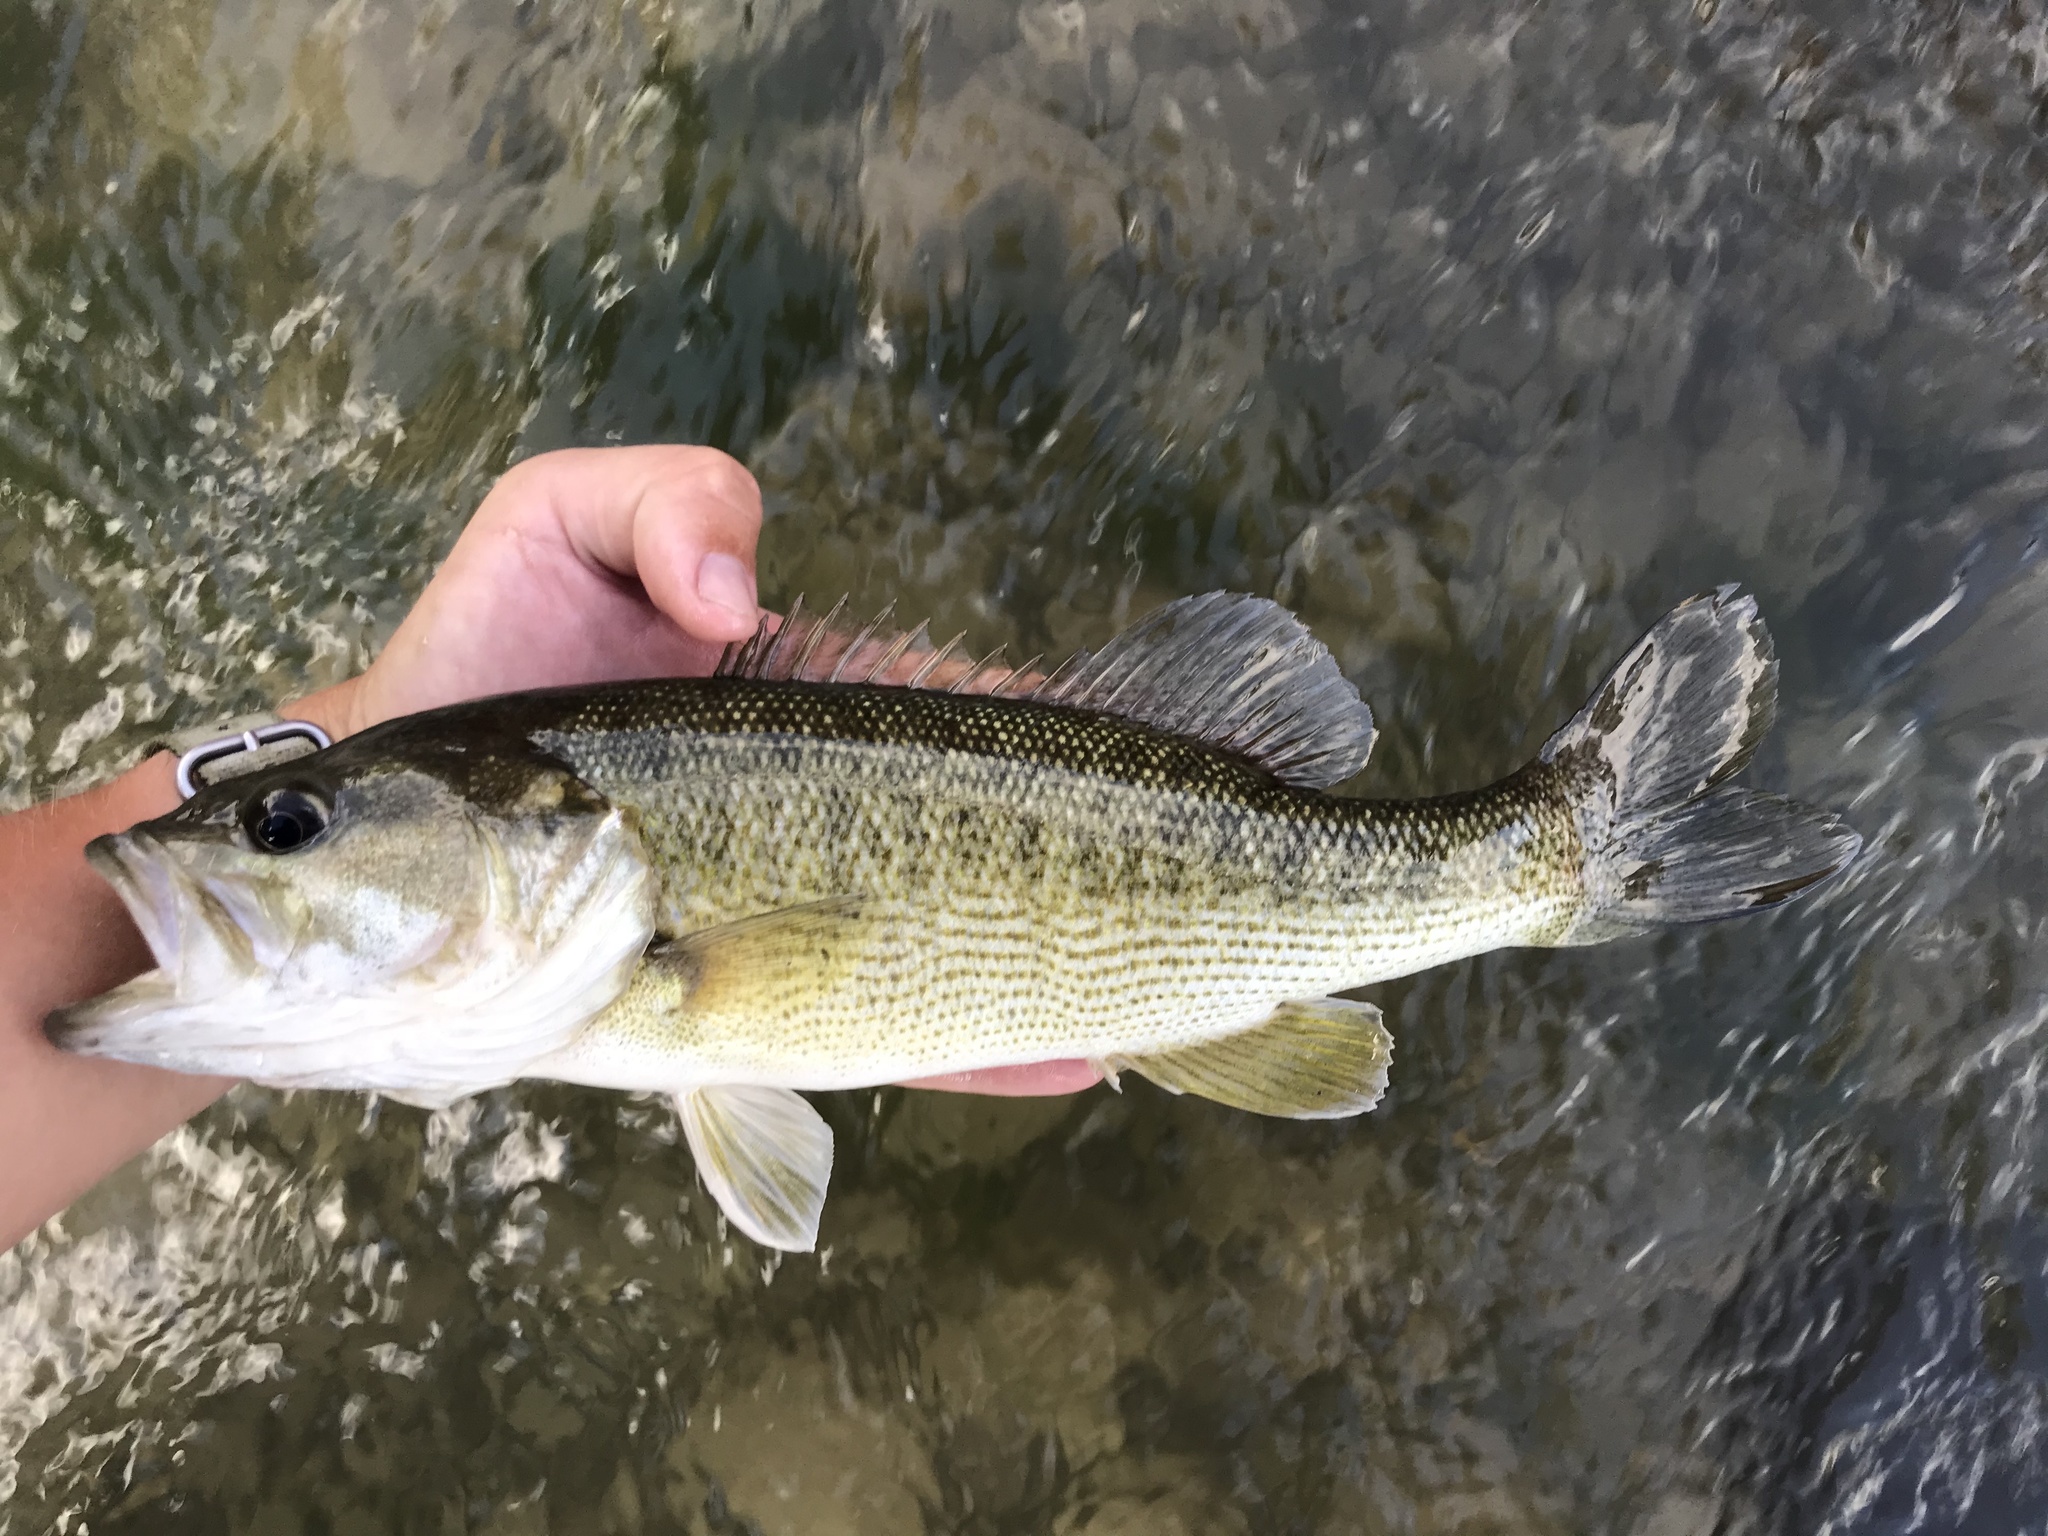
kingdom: Animalia
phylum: Chordata
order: Perciformes
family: Centrarchidae
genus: Micropterus
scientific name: Micropterus treculii
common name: Guadalupe bass
